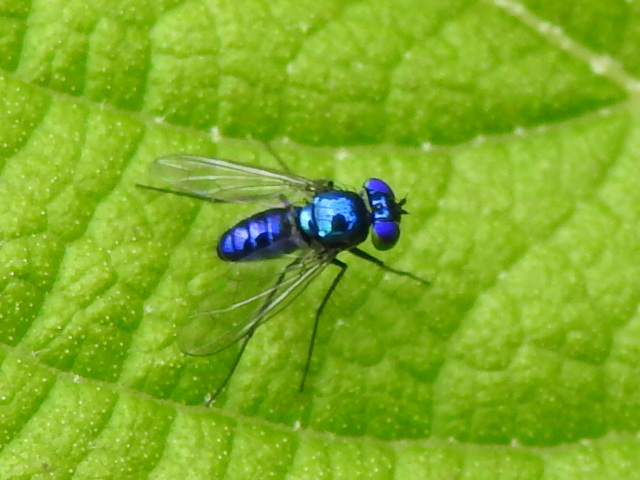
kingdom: Animalia
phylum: Arthropoda
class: Insecta
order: Diptera
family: Dolichopodidae
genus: Condylostylus
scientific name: Condylostylus mundus
